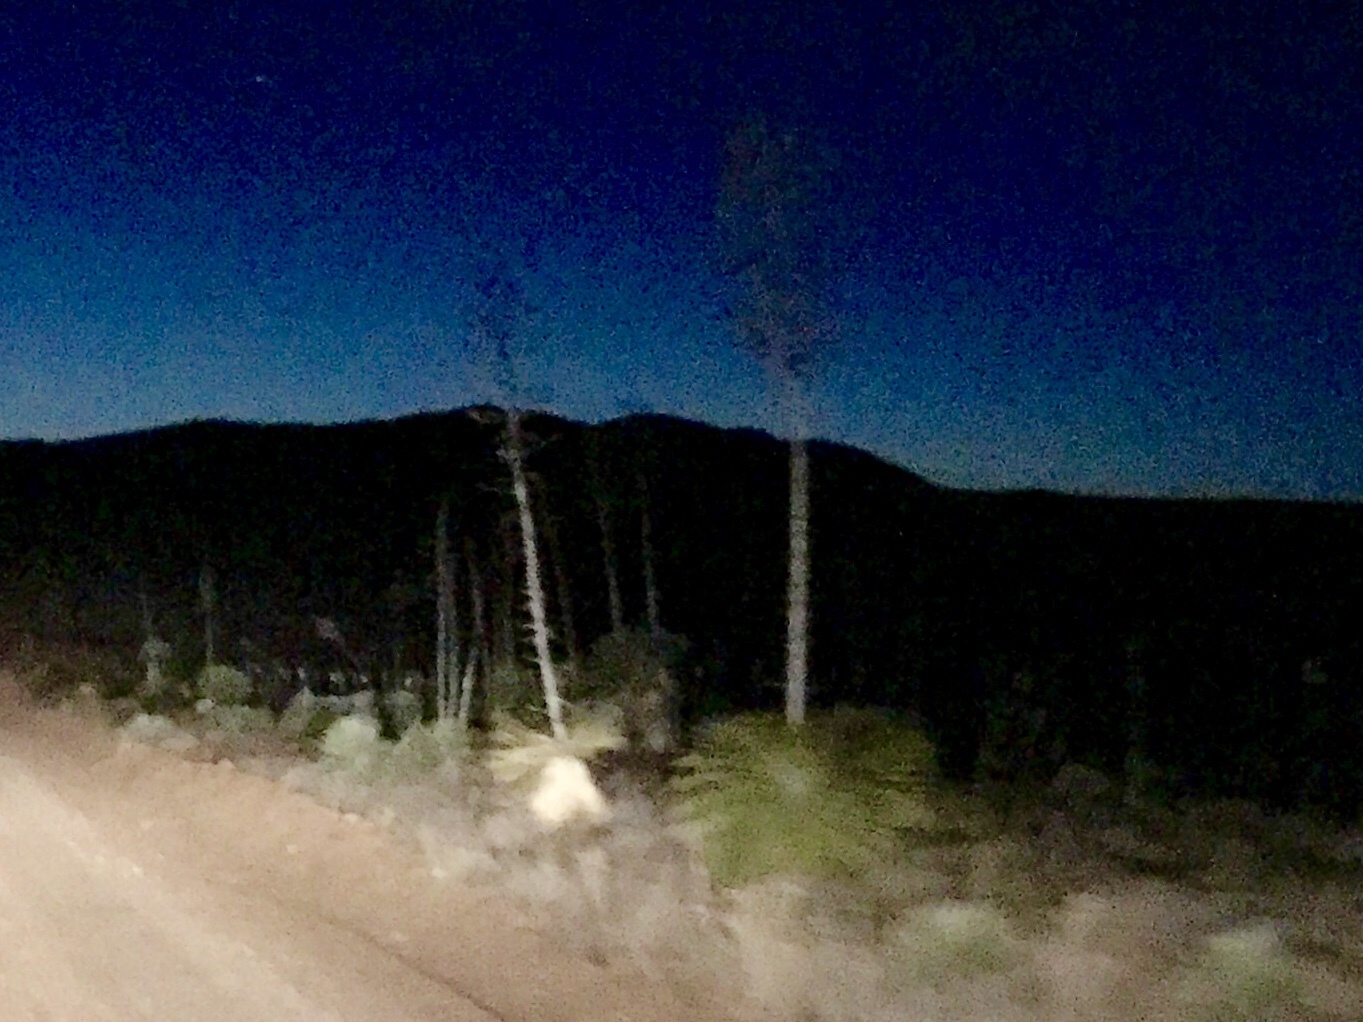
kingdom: Plantae
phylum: Tracheophyta
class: Liliopsida
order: Asparagales
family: Asparagaceae
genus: Yucca
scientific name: Yucca elata
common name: Palmella
